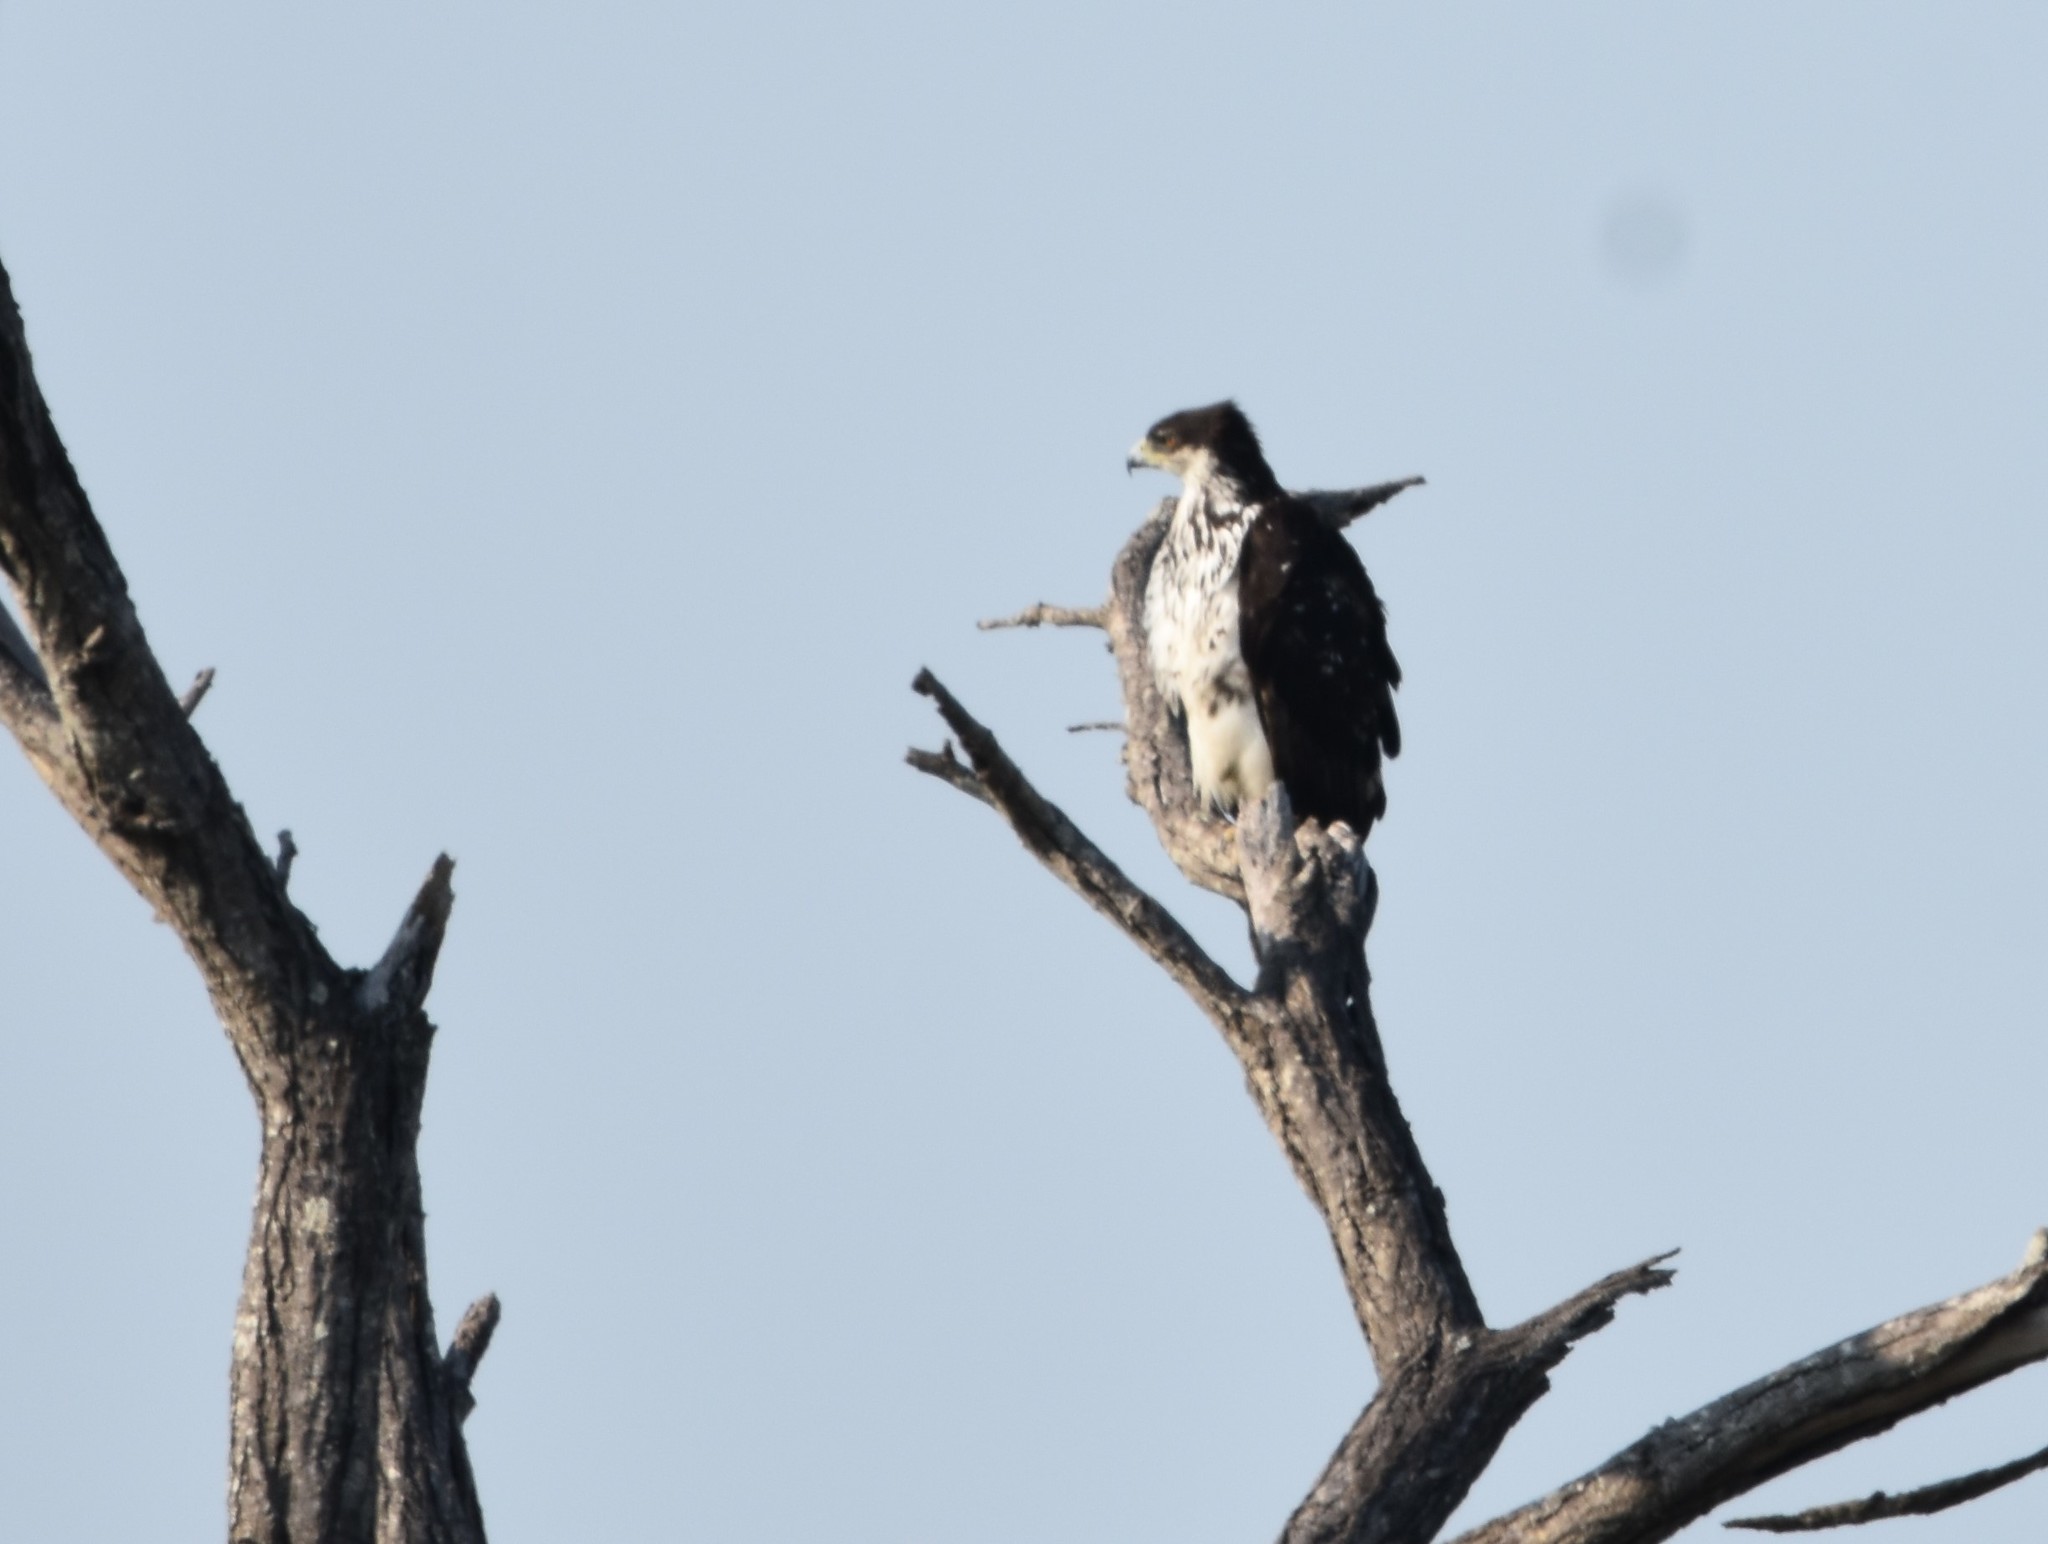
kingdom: Animalia
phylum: Chordata
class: Aves
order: Accipitriformes
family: Accipitridae
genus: Aquila
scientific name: Aquila spilogaster
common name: African hawk-eagle
